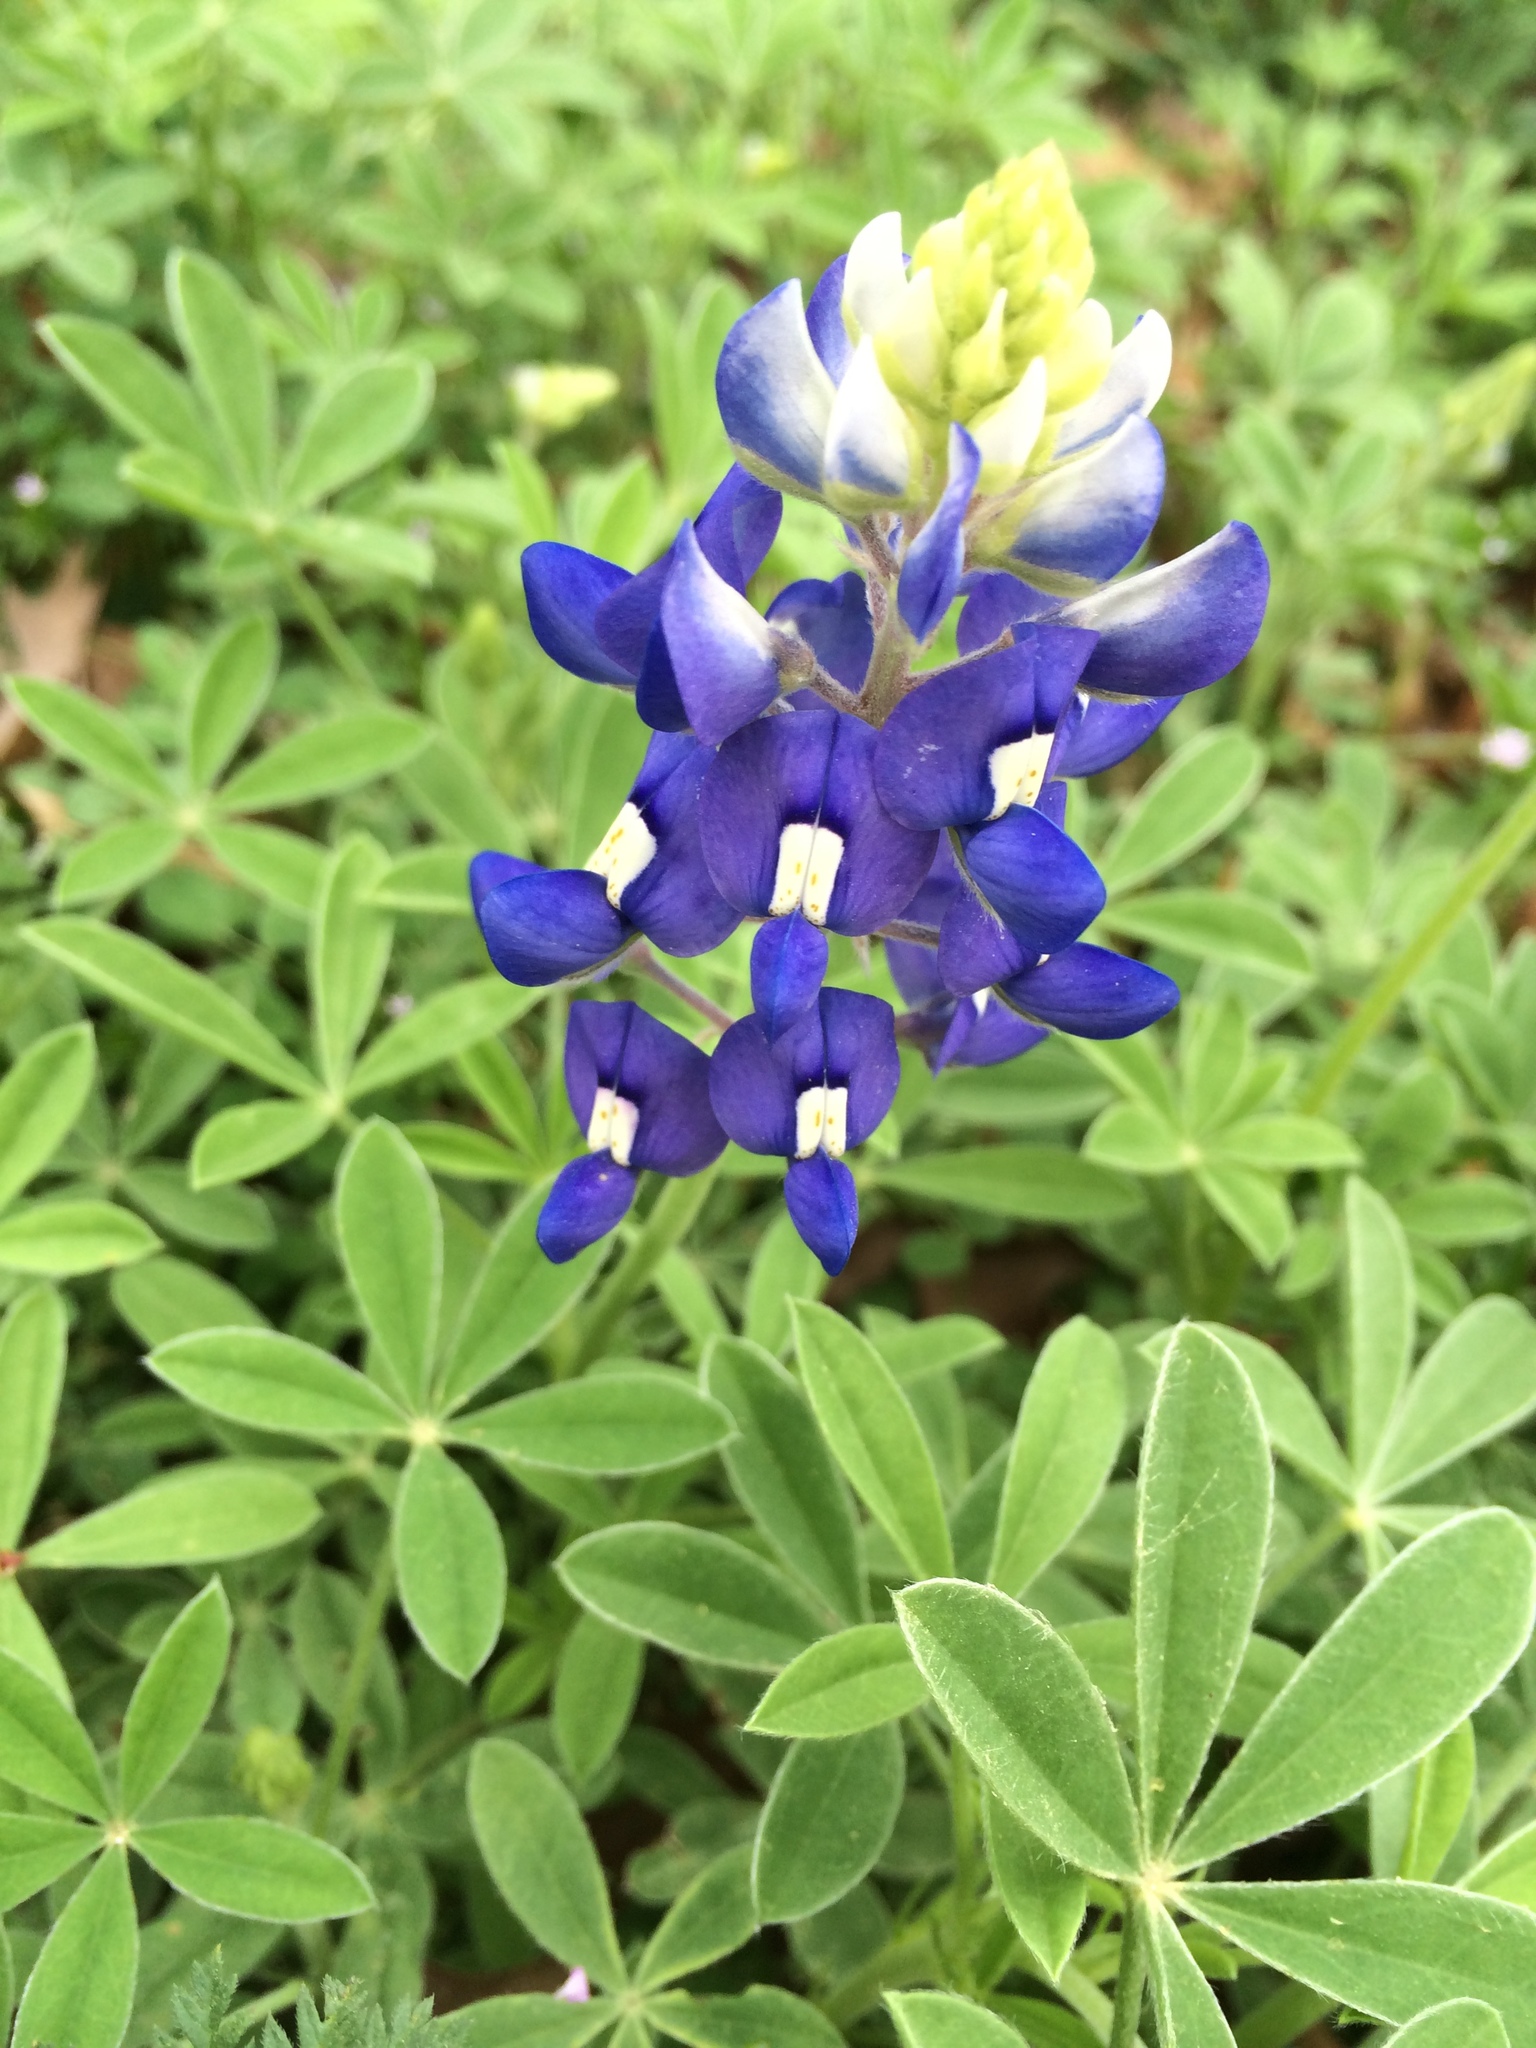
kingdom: Plantae
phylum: Tracheophyta
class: Magnoliopsida
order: Fabales
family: Fabaceae
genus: Lupinus
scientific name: Lupinus texensis
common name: Texas bluebonnet
